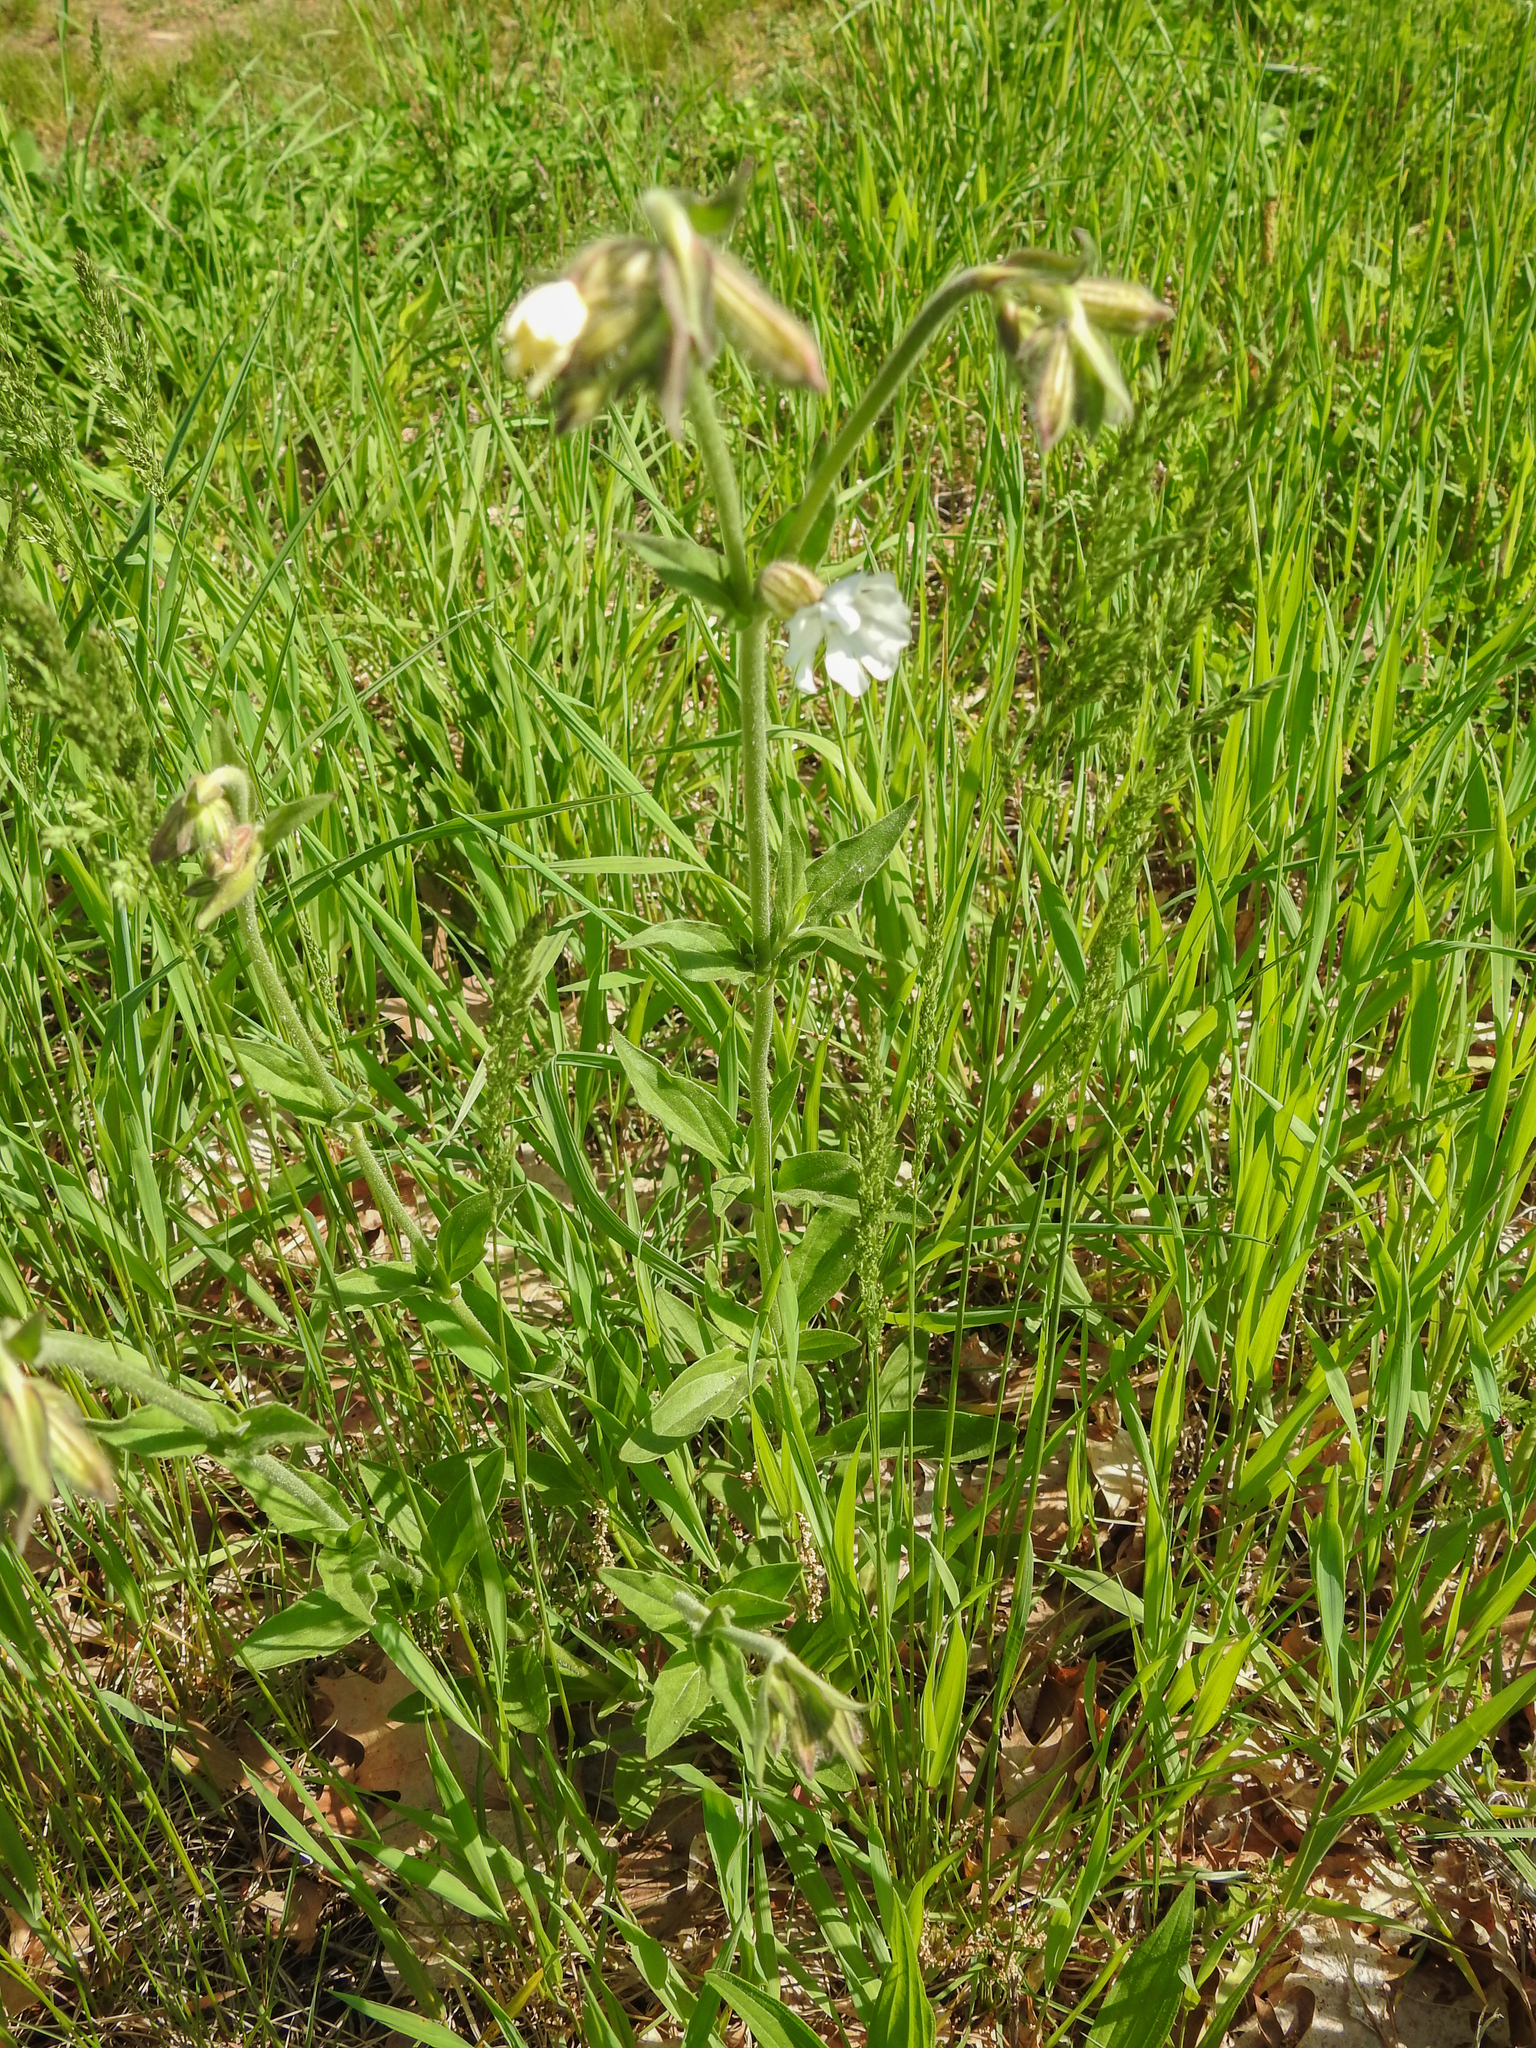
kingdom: Plantae
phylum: Tracheophyta
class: Magnoliopsida
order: Caryophyllales
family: Caryophyllaceae
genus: Silene
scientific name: Silene latifolia
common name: White campion
